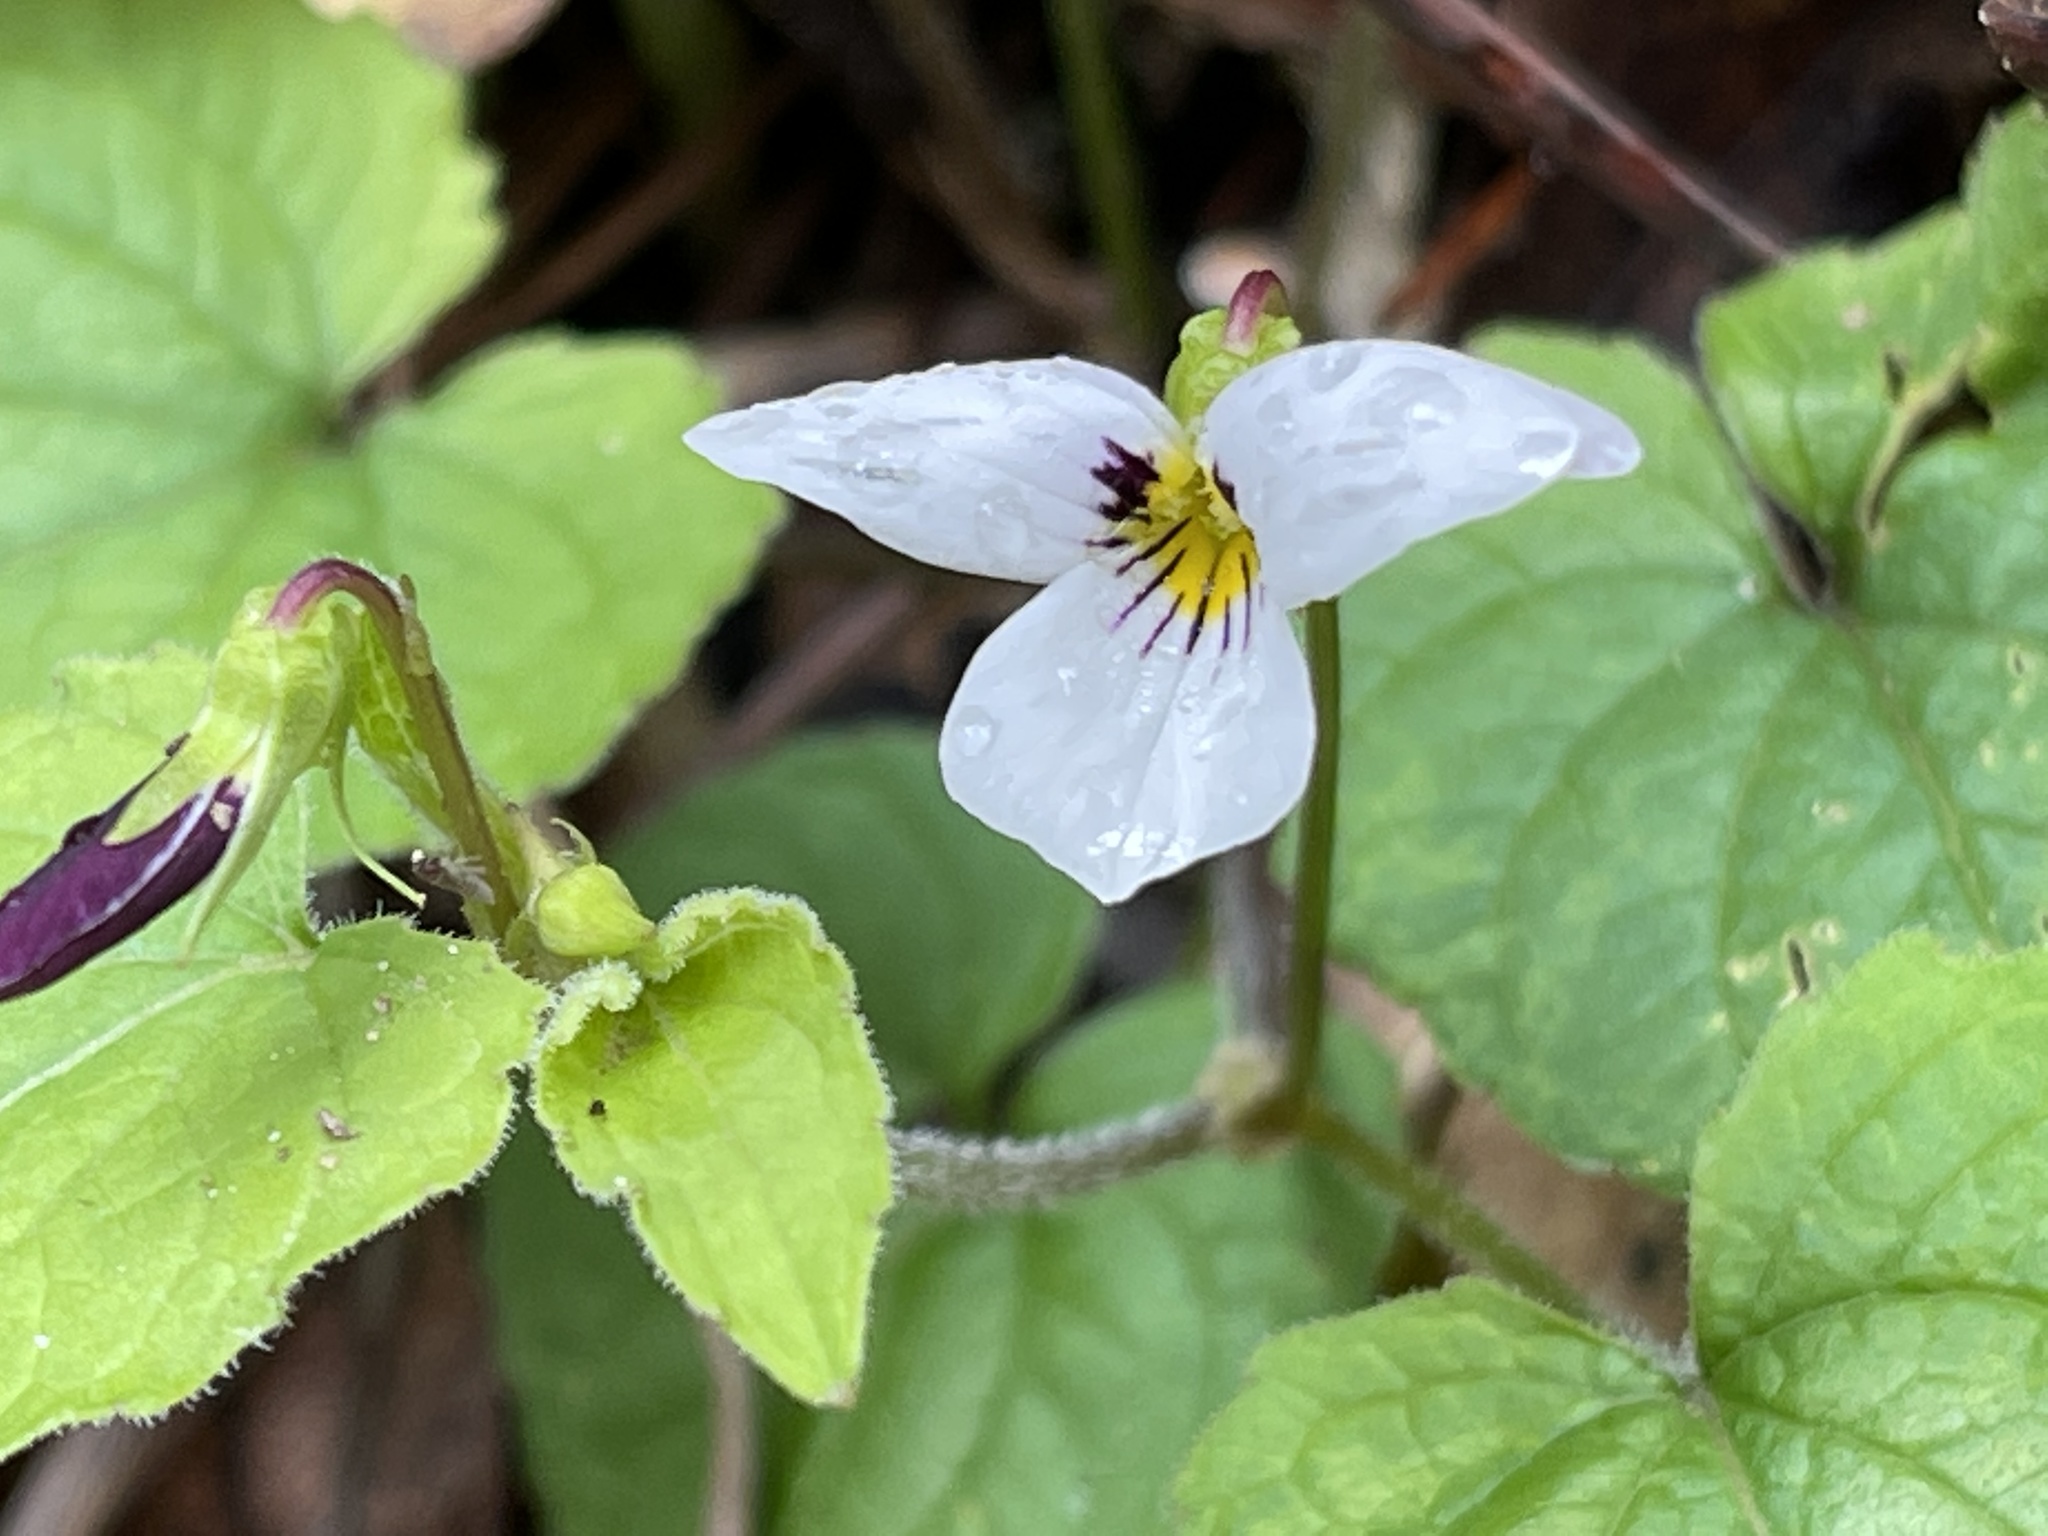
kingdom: Plantae
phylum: Tracheophyta
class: Magnoliopsida
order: Malpighiales
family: Violaceae
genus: Viola
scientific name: Viola ocellata
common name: Western heart's ease
